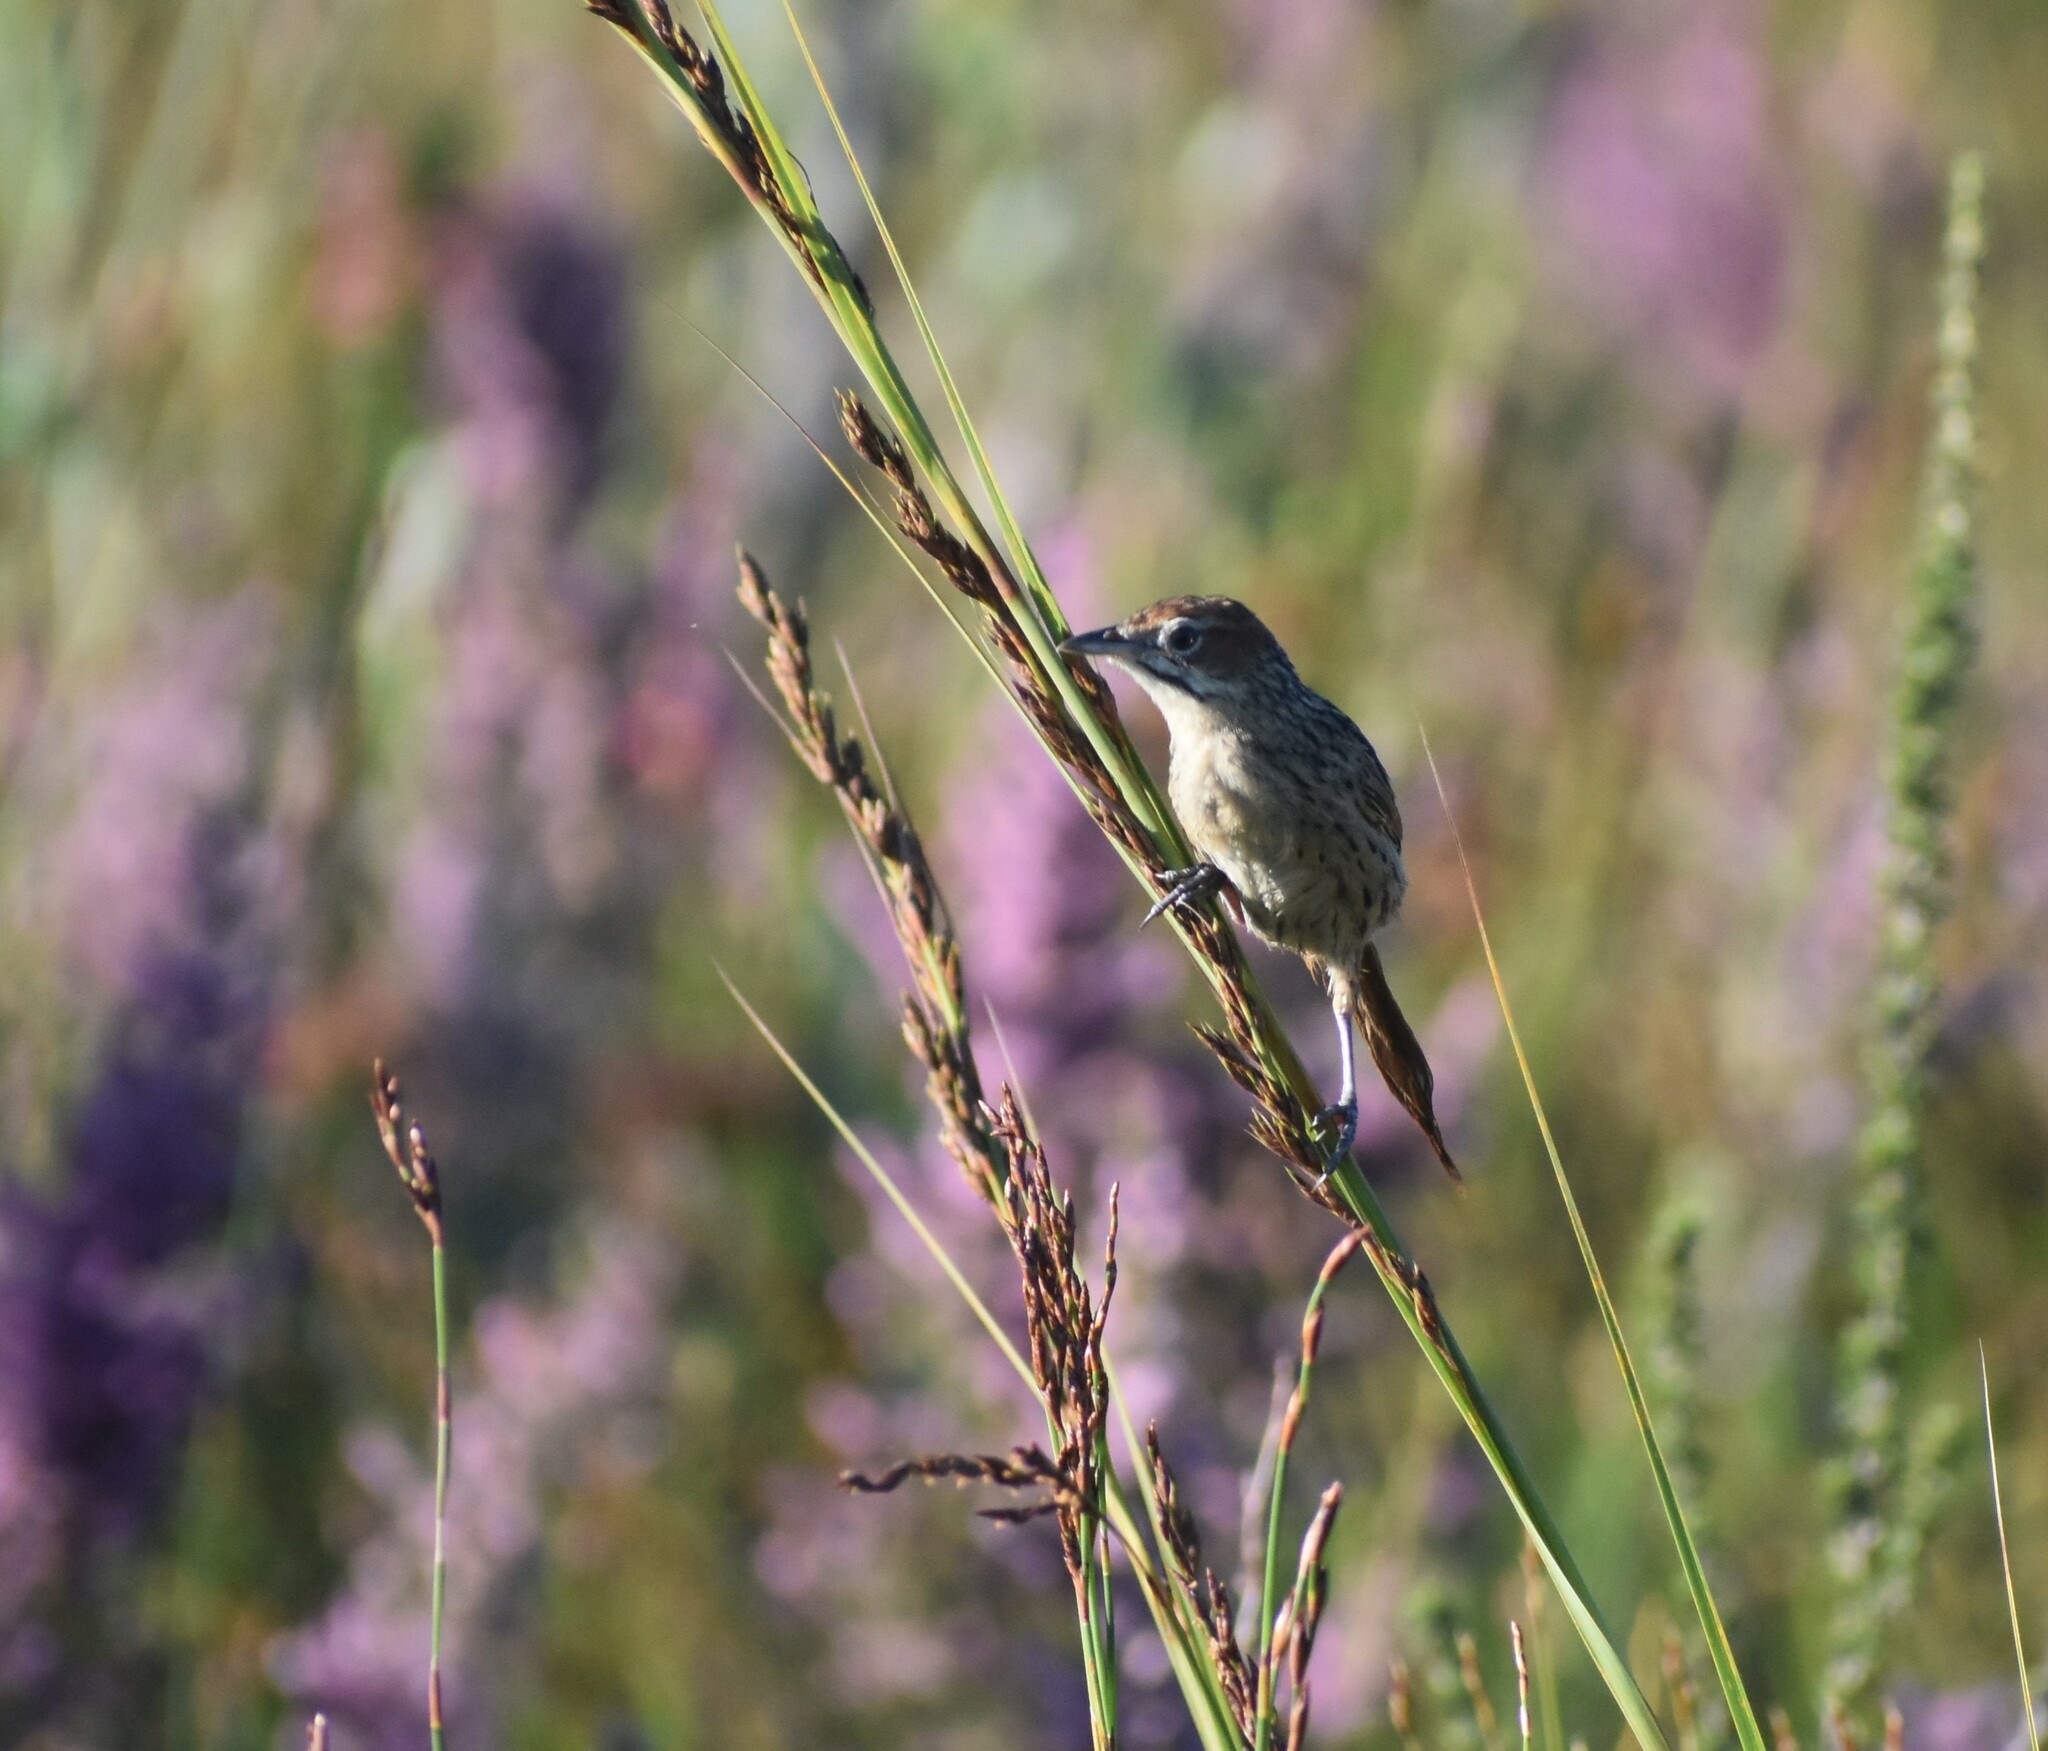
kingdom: Animalia
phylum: Chordata
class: Aves
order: Passeriformes
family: Macrosphenidae
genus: Sphenoeacus
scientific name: Sphenoeacus afer
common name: Cape grassbird
